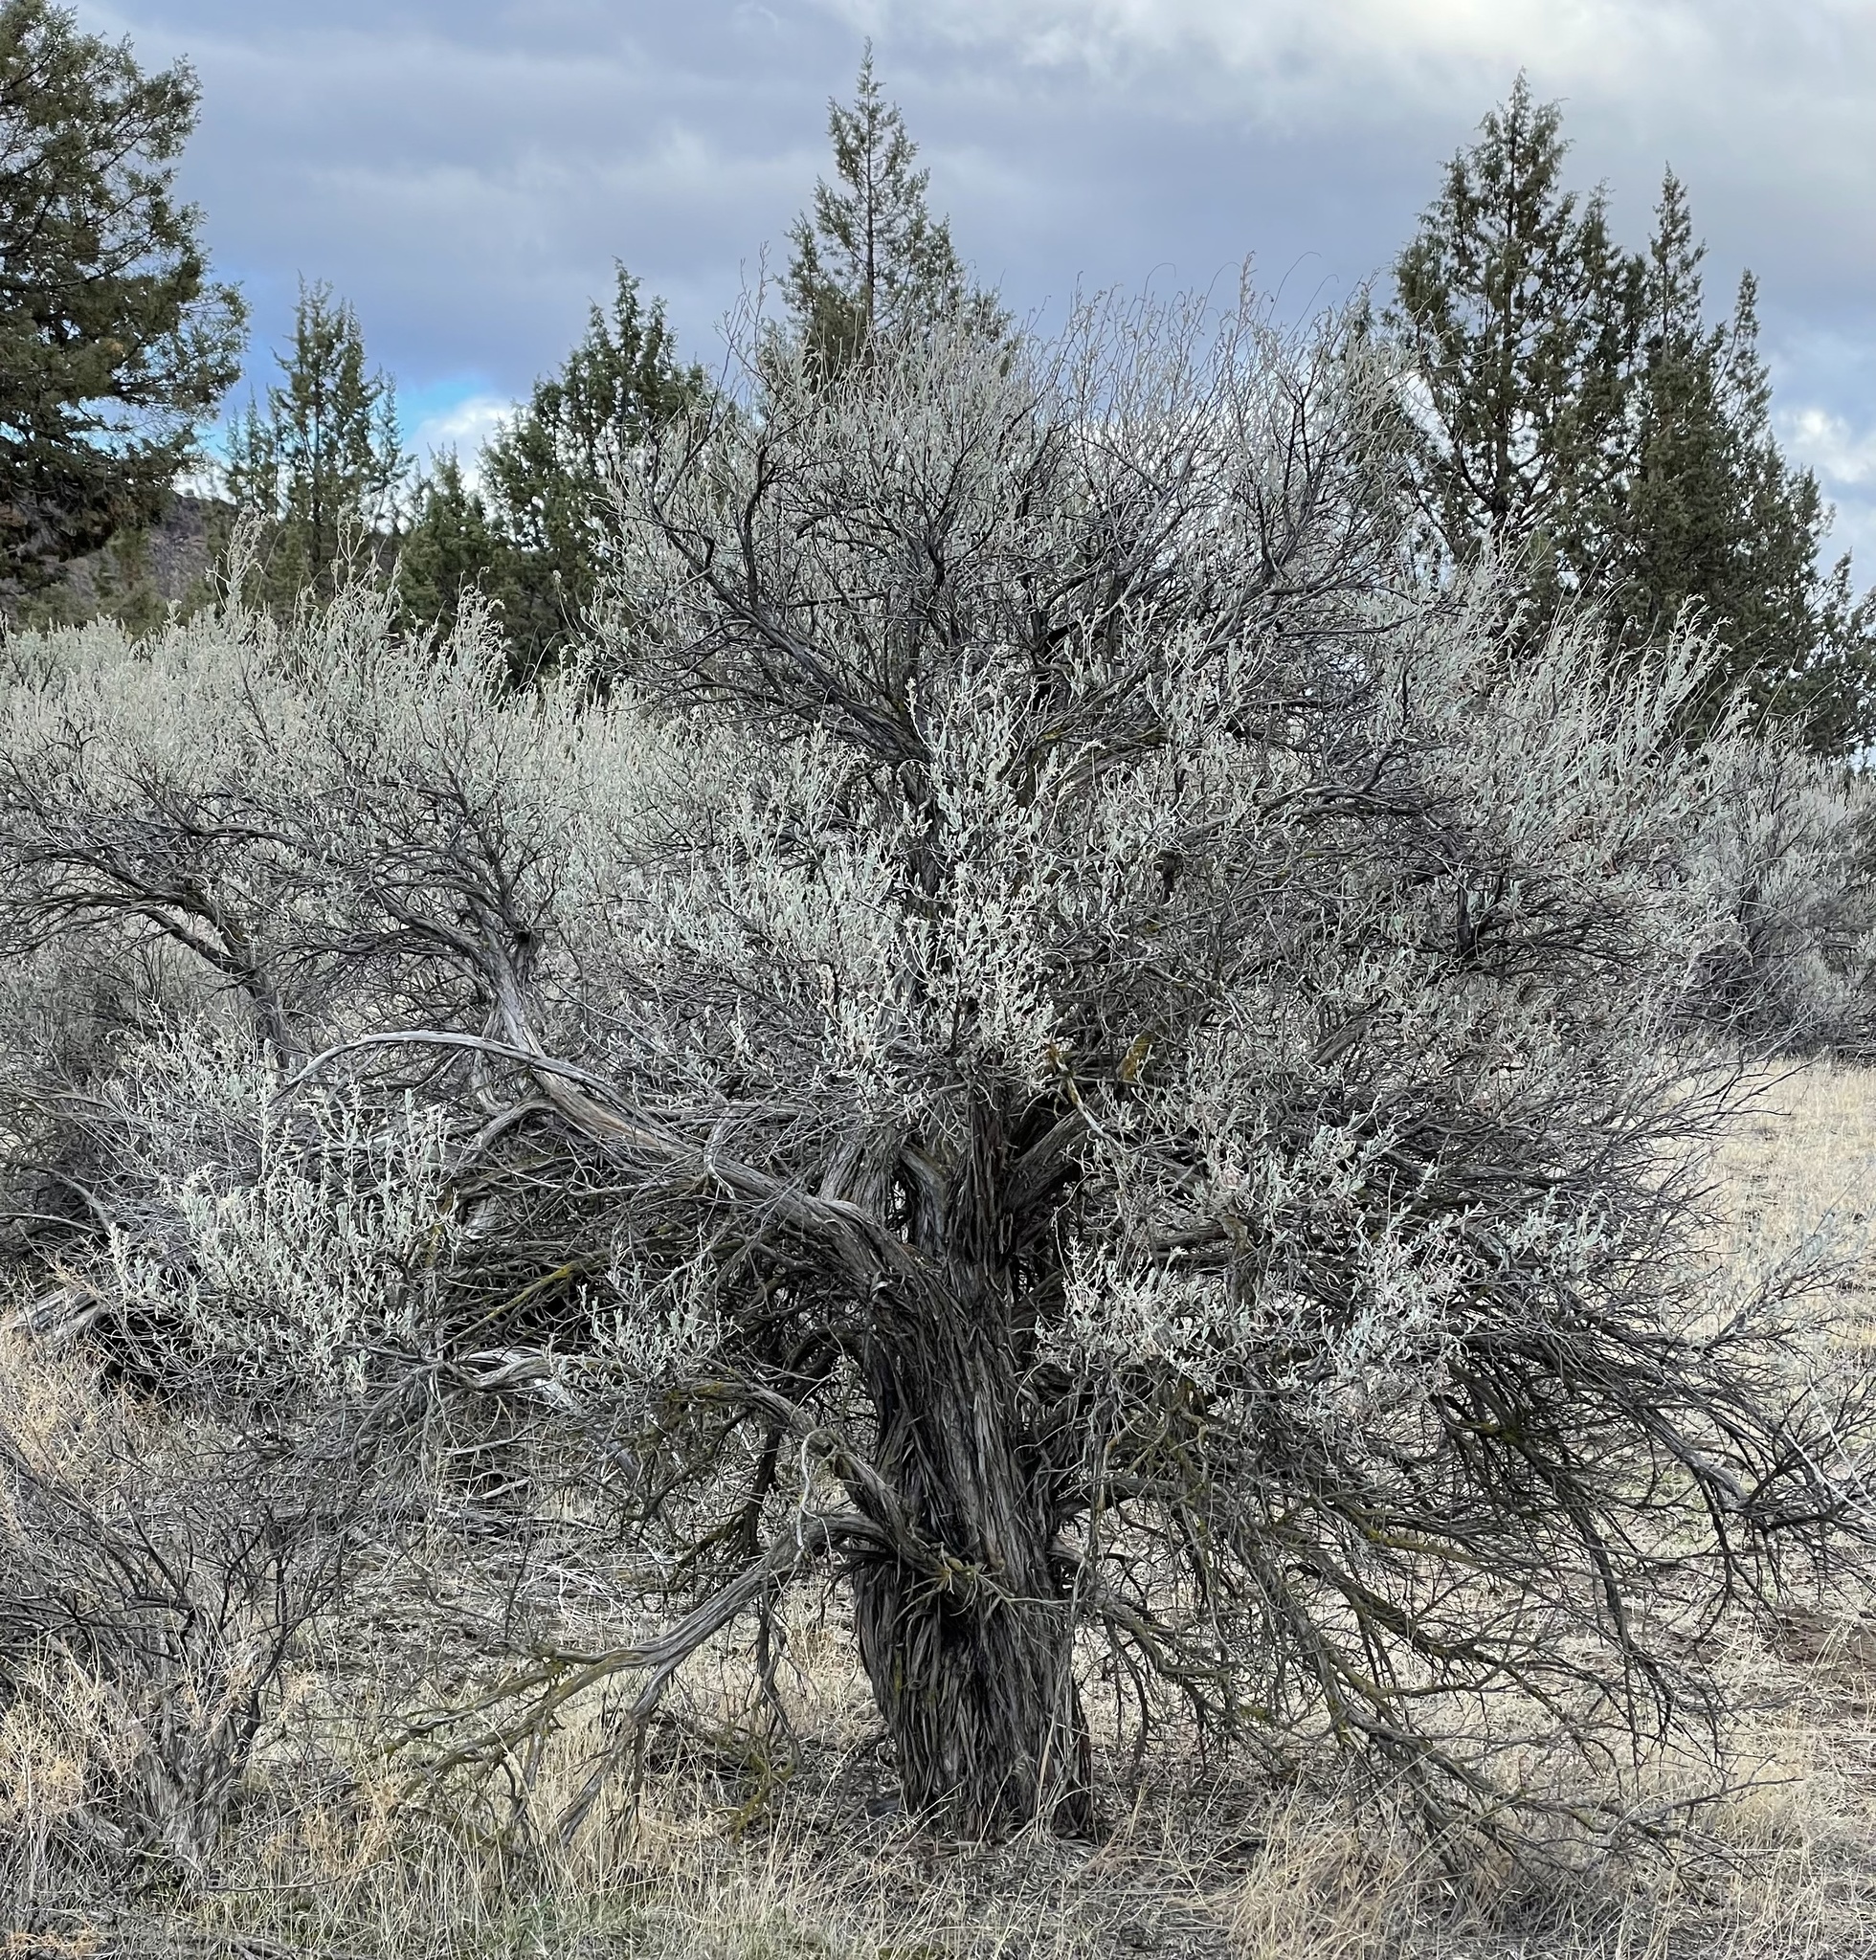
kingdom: Plantae
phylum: Tracheophyta
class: Magnoliopsida
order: Asterales
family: Asteraceae
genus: Artemisia
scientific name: Artemisia tridentata
